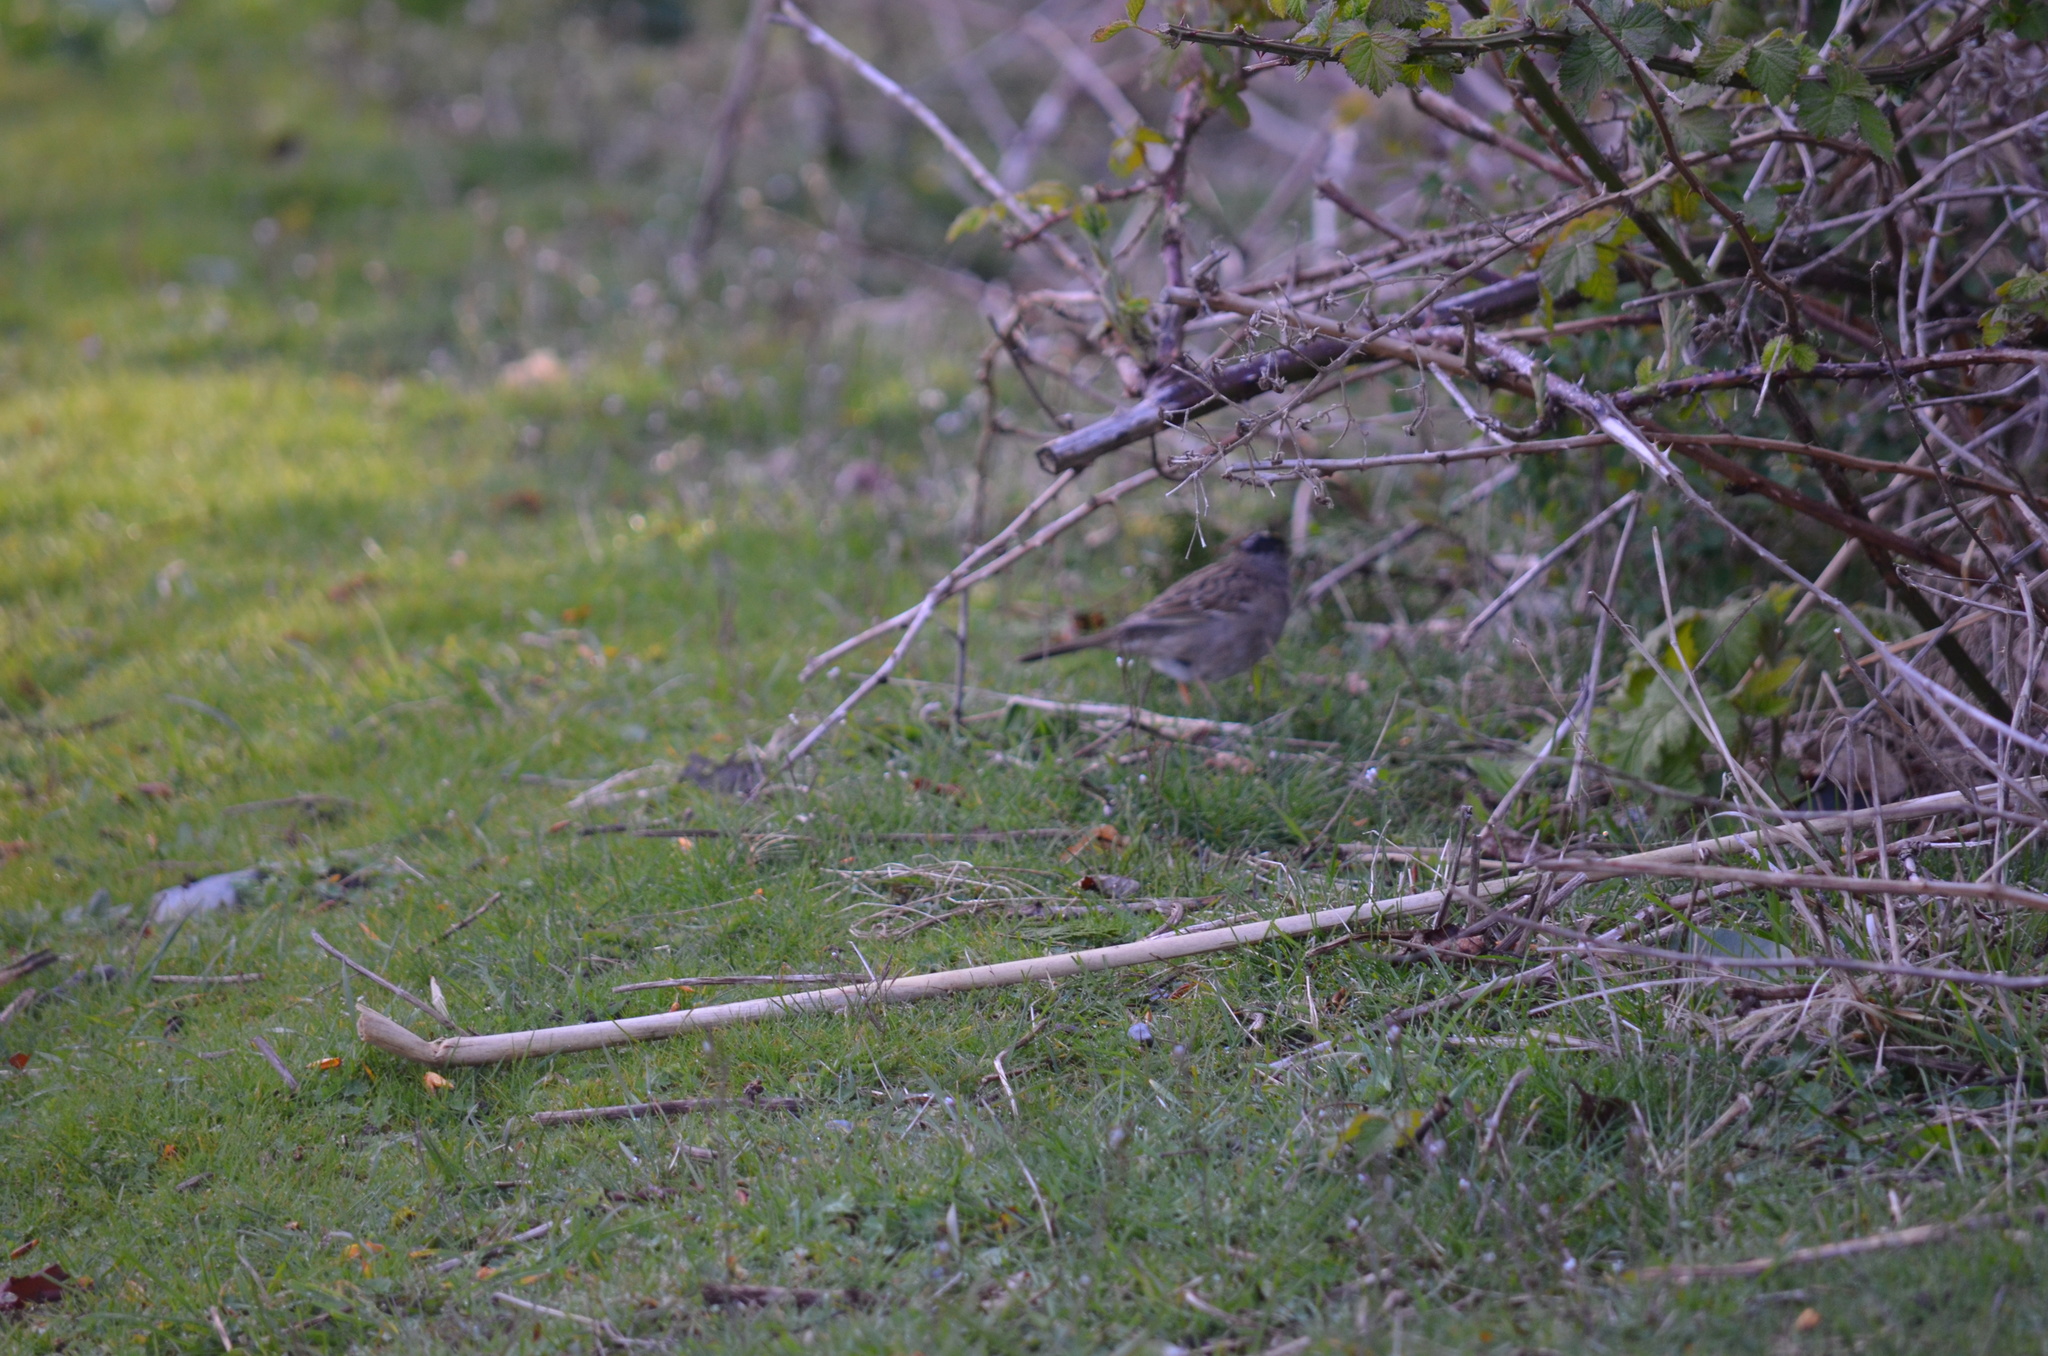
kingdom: Animalia
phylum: Chordata
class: Aves
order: Passeriformes
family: Passerellidae
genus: Zonotrichia
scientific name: Zonotrichia atricapilla
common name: Golden-crowned sparrow
